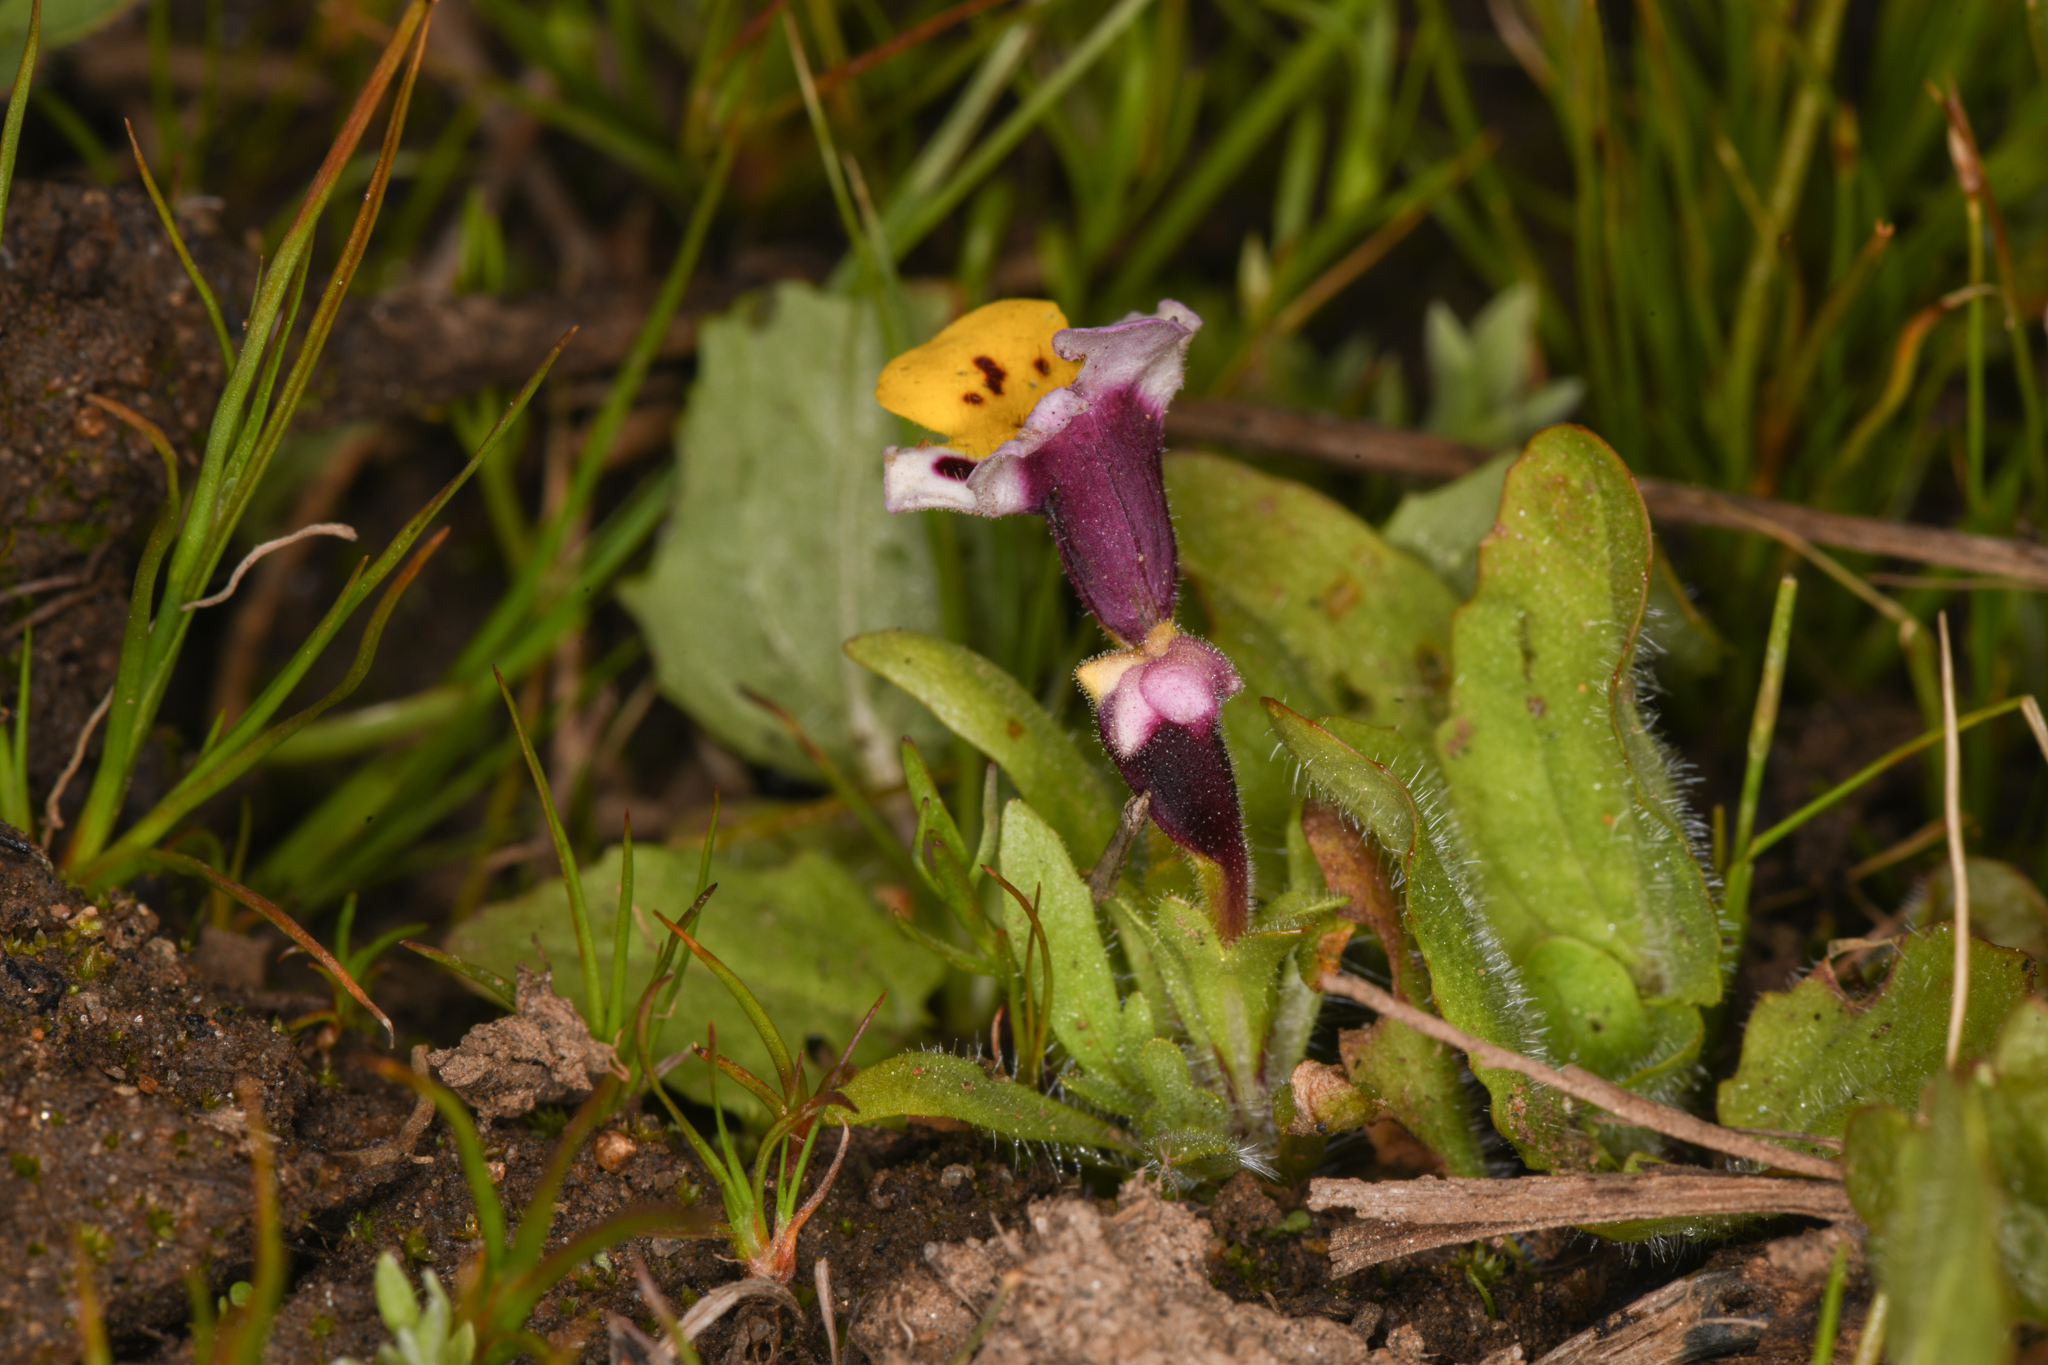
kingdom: Plantae
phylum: Tracheophyta
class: Magnoliopsida
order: Lamiales
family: Phrymaceae
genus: Diplacus
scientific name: Diplacus pulchellus
